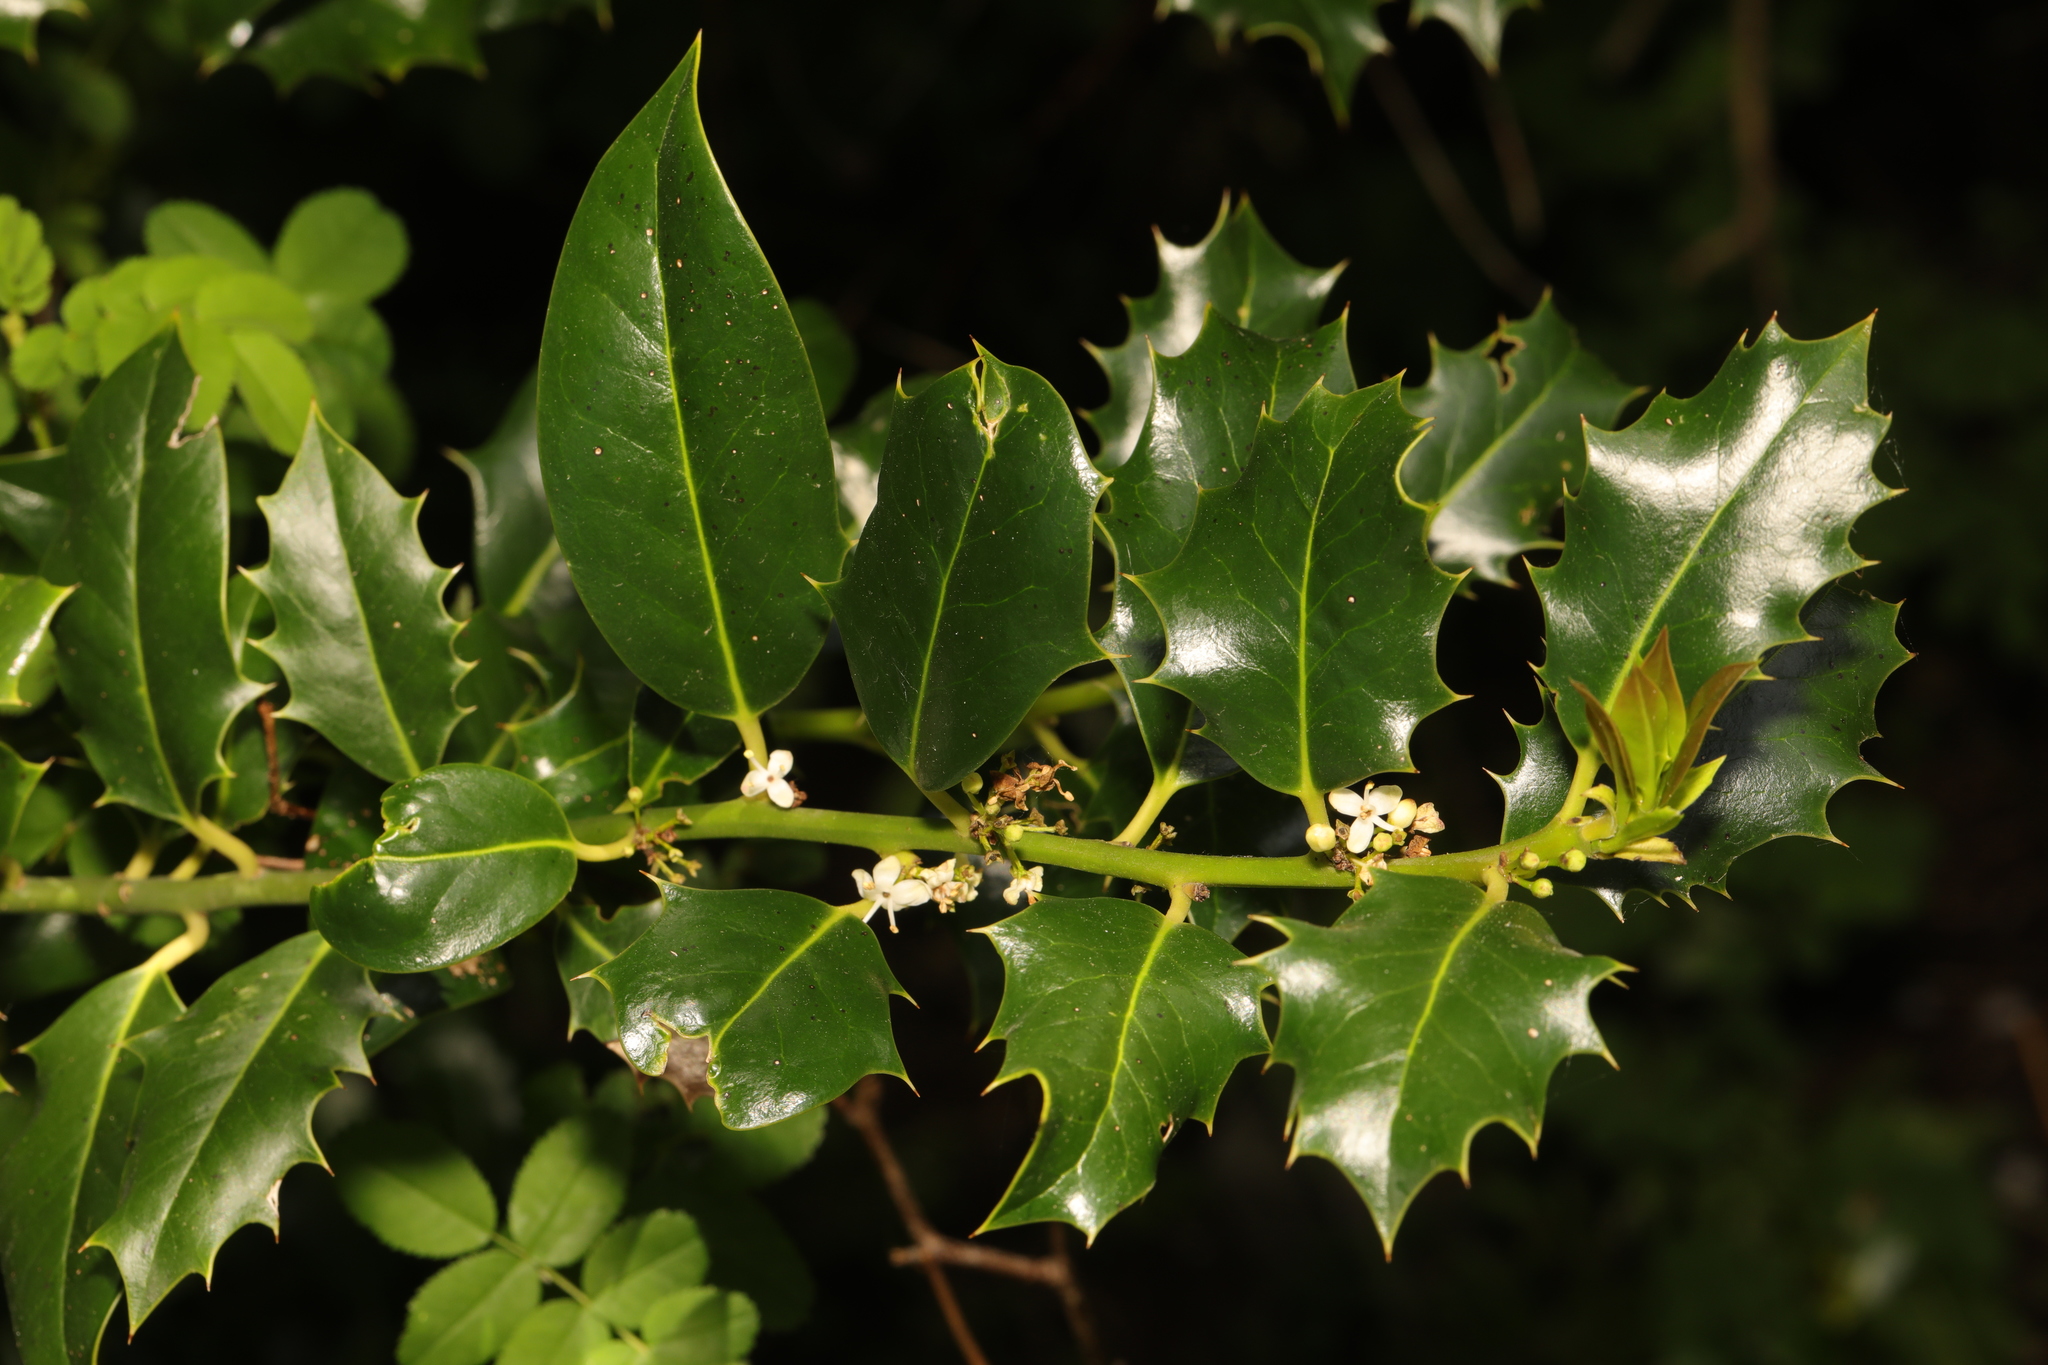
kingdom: Plantae
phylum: Tracheophyta
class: Magnoliopsida
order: Aquifoliales
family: Aquifoliaceae
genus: Ilex
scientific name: Ilex aquifolium
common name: English holly
